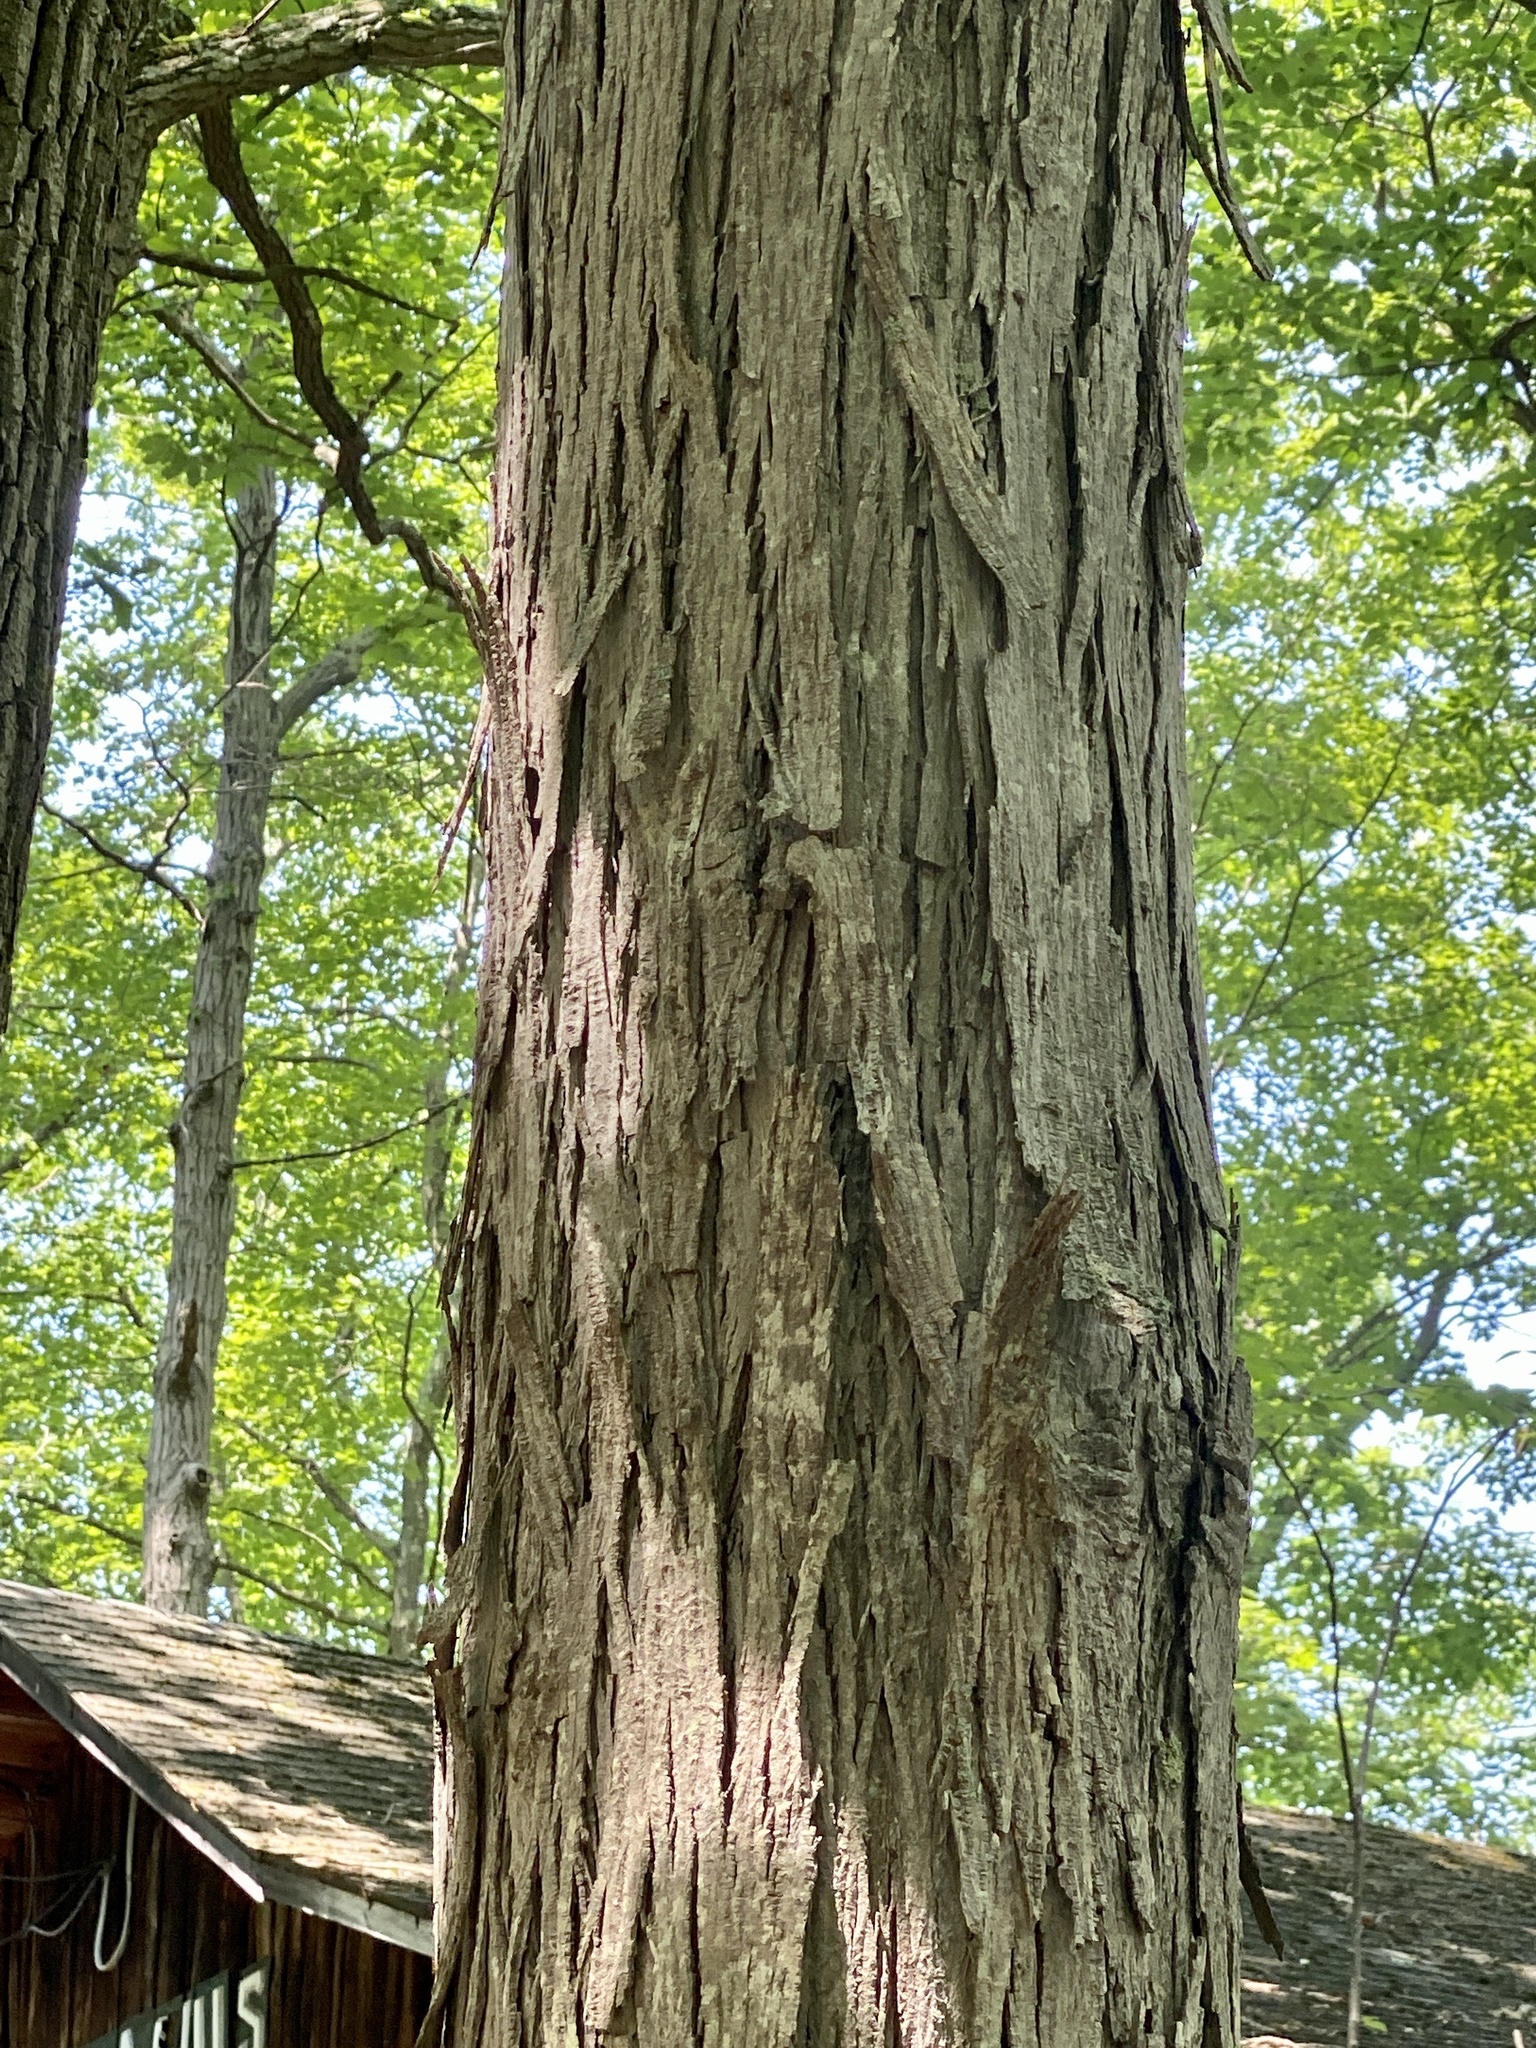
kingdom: Plantae
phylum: Tracheophyta
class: Magnoliopsida
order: Fagales
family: Juglandaceae
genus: Carya
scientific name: Carya ovata
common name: Shagbark hickory
